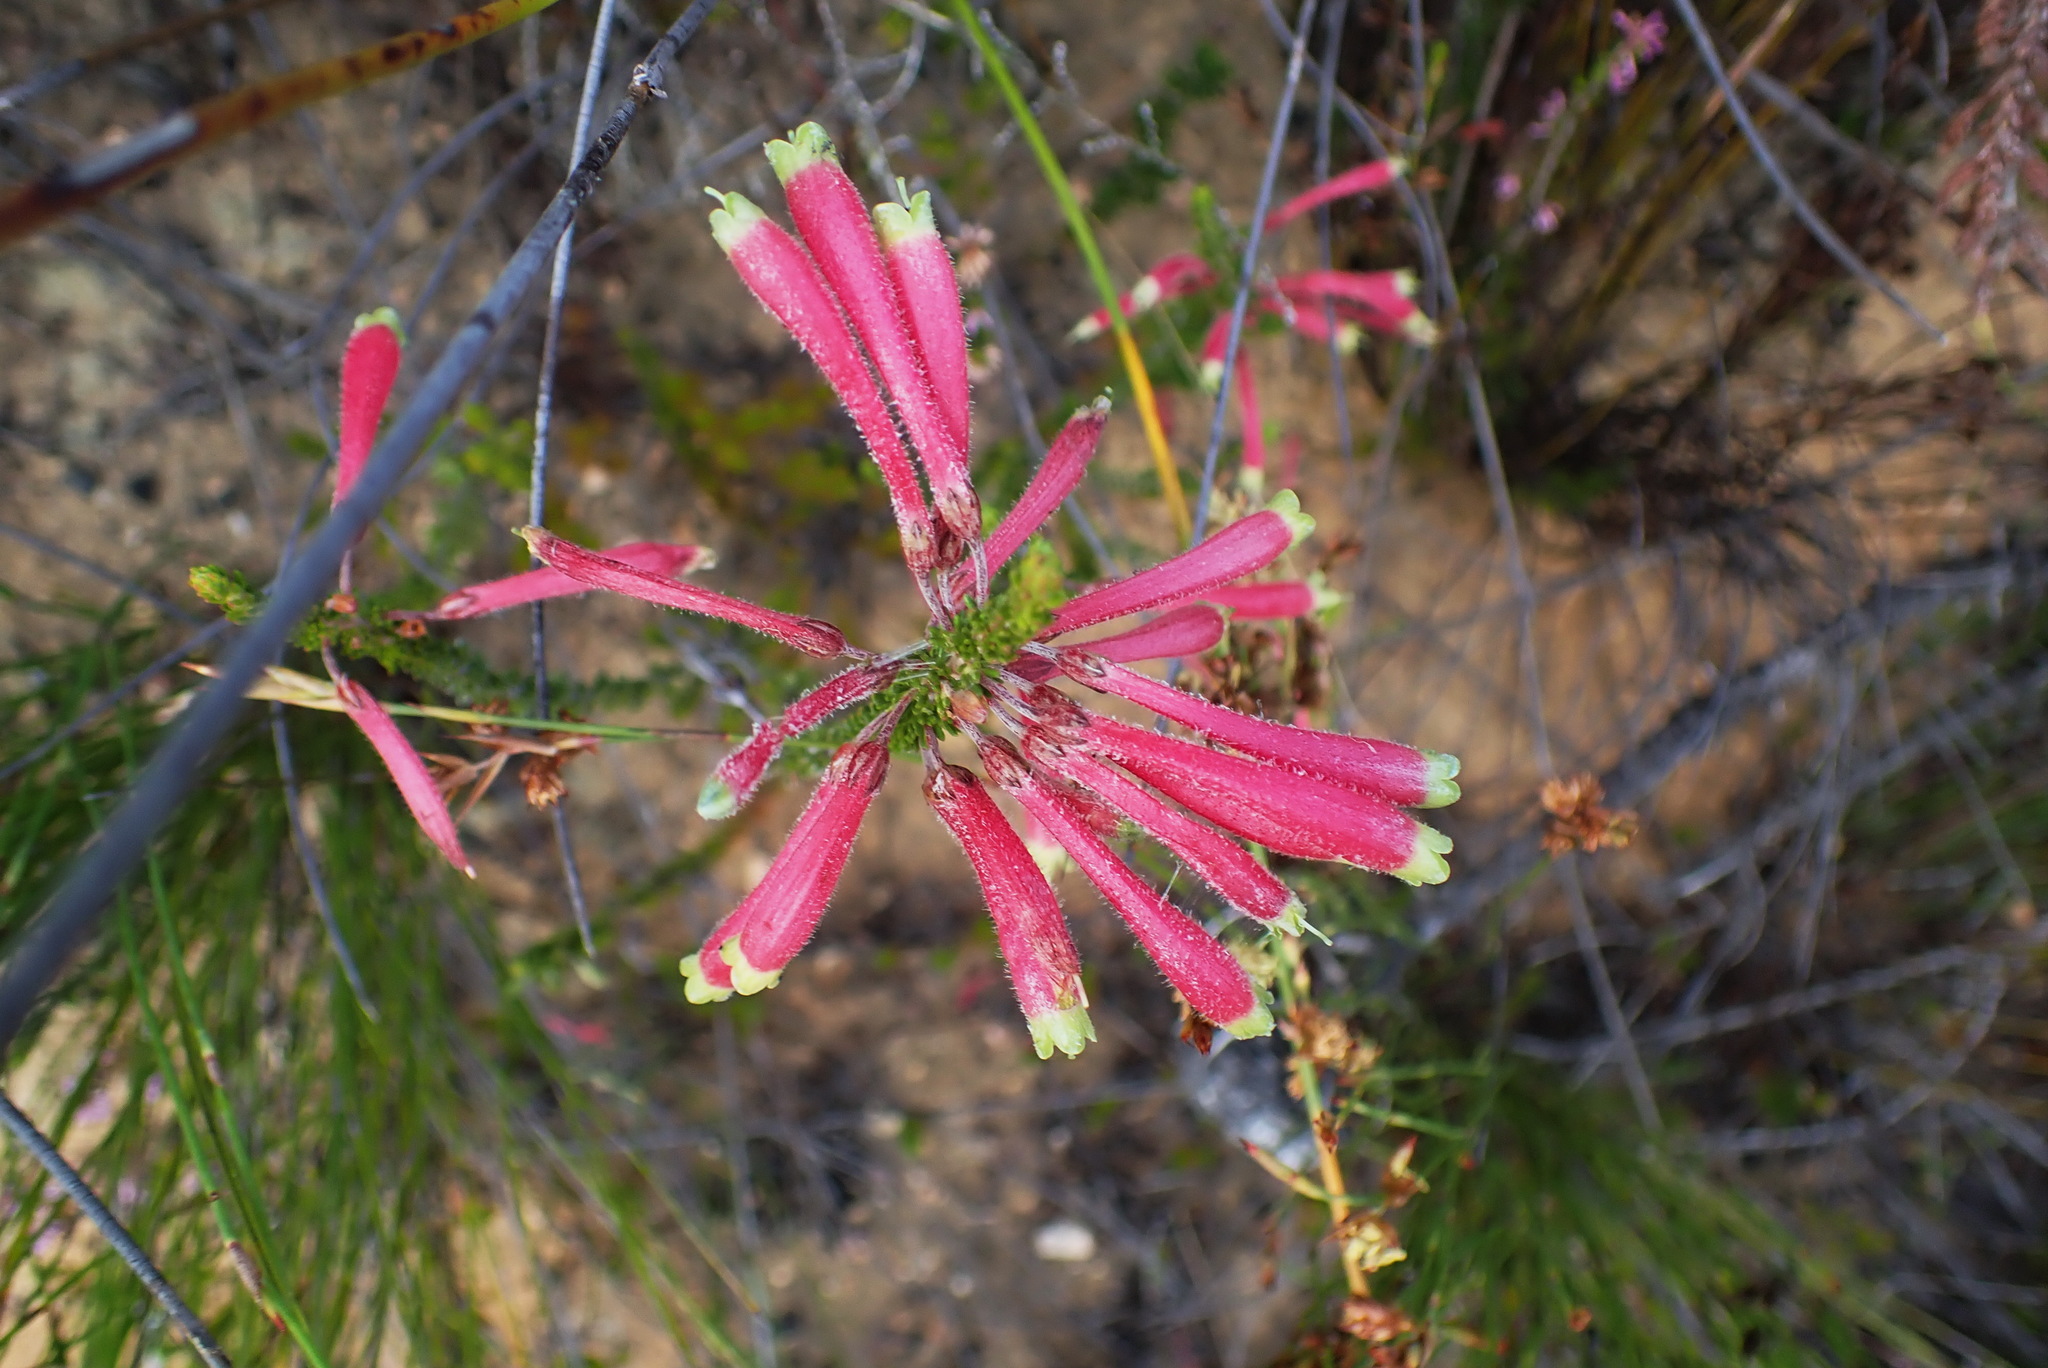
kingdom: Plantae
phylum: Tracheophyta
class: Magnoliopsida
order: Ericales
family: Ericaceae
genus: Erica
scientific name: Erica densifolia
